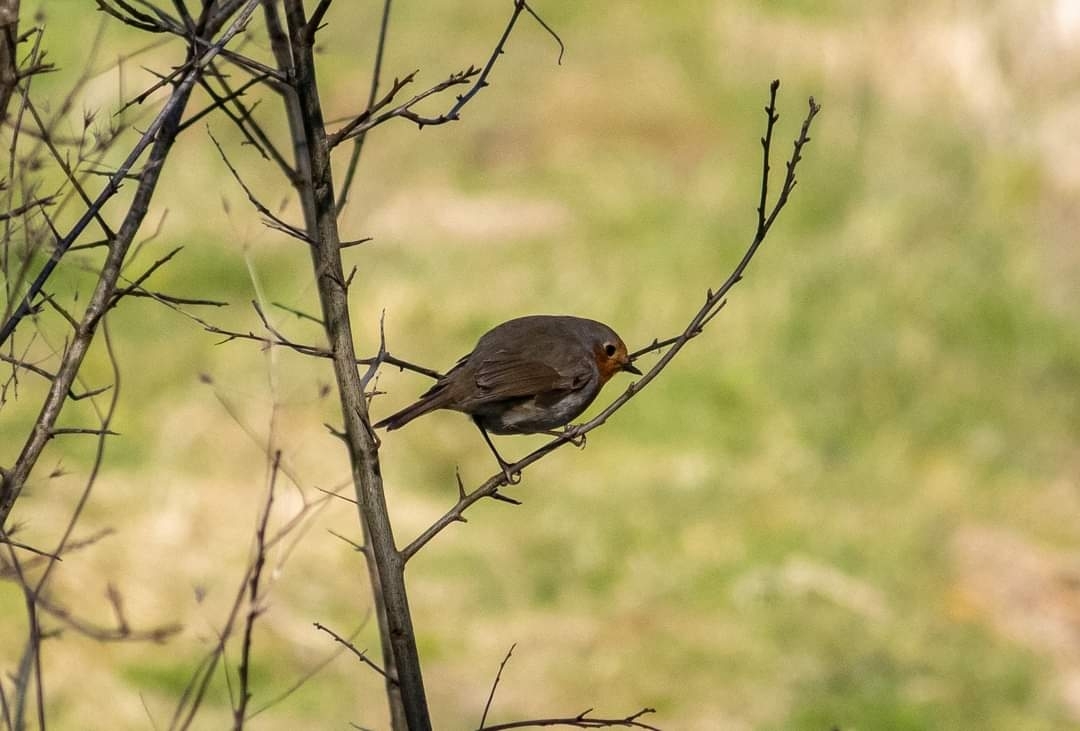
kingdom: Animalia
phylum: Chordata
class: Aves
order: Passeriformes
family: Muscicapidae
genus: Erithacus
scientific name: Erithacus rubecula
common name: European robin
